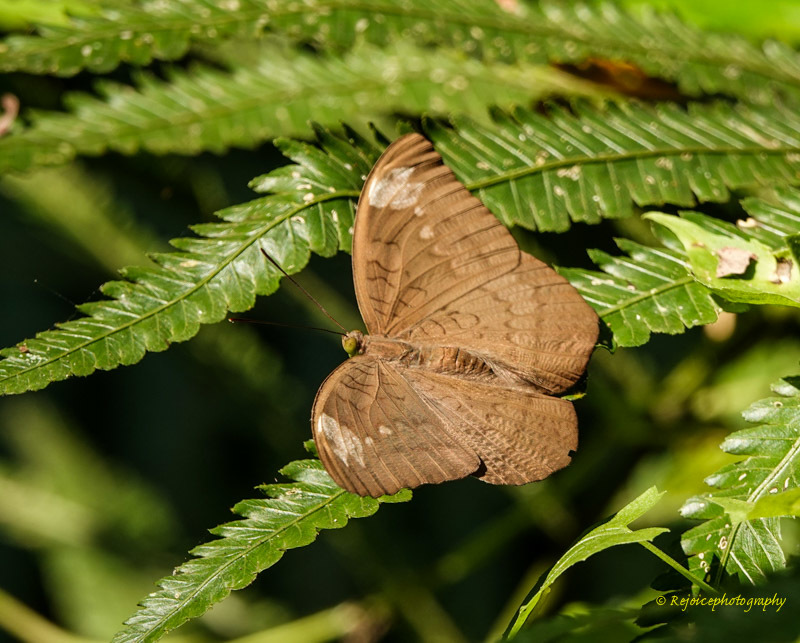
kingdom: Animalia
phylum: Arthropoda
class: Insecta
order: Lepidoptera
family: Nymphalidae
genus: Tanaecia
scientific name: Tanaecia julii
